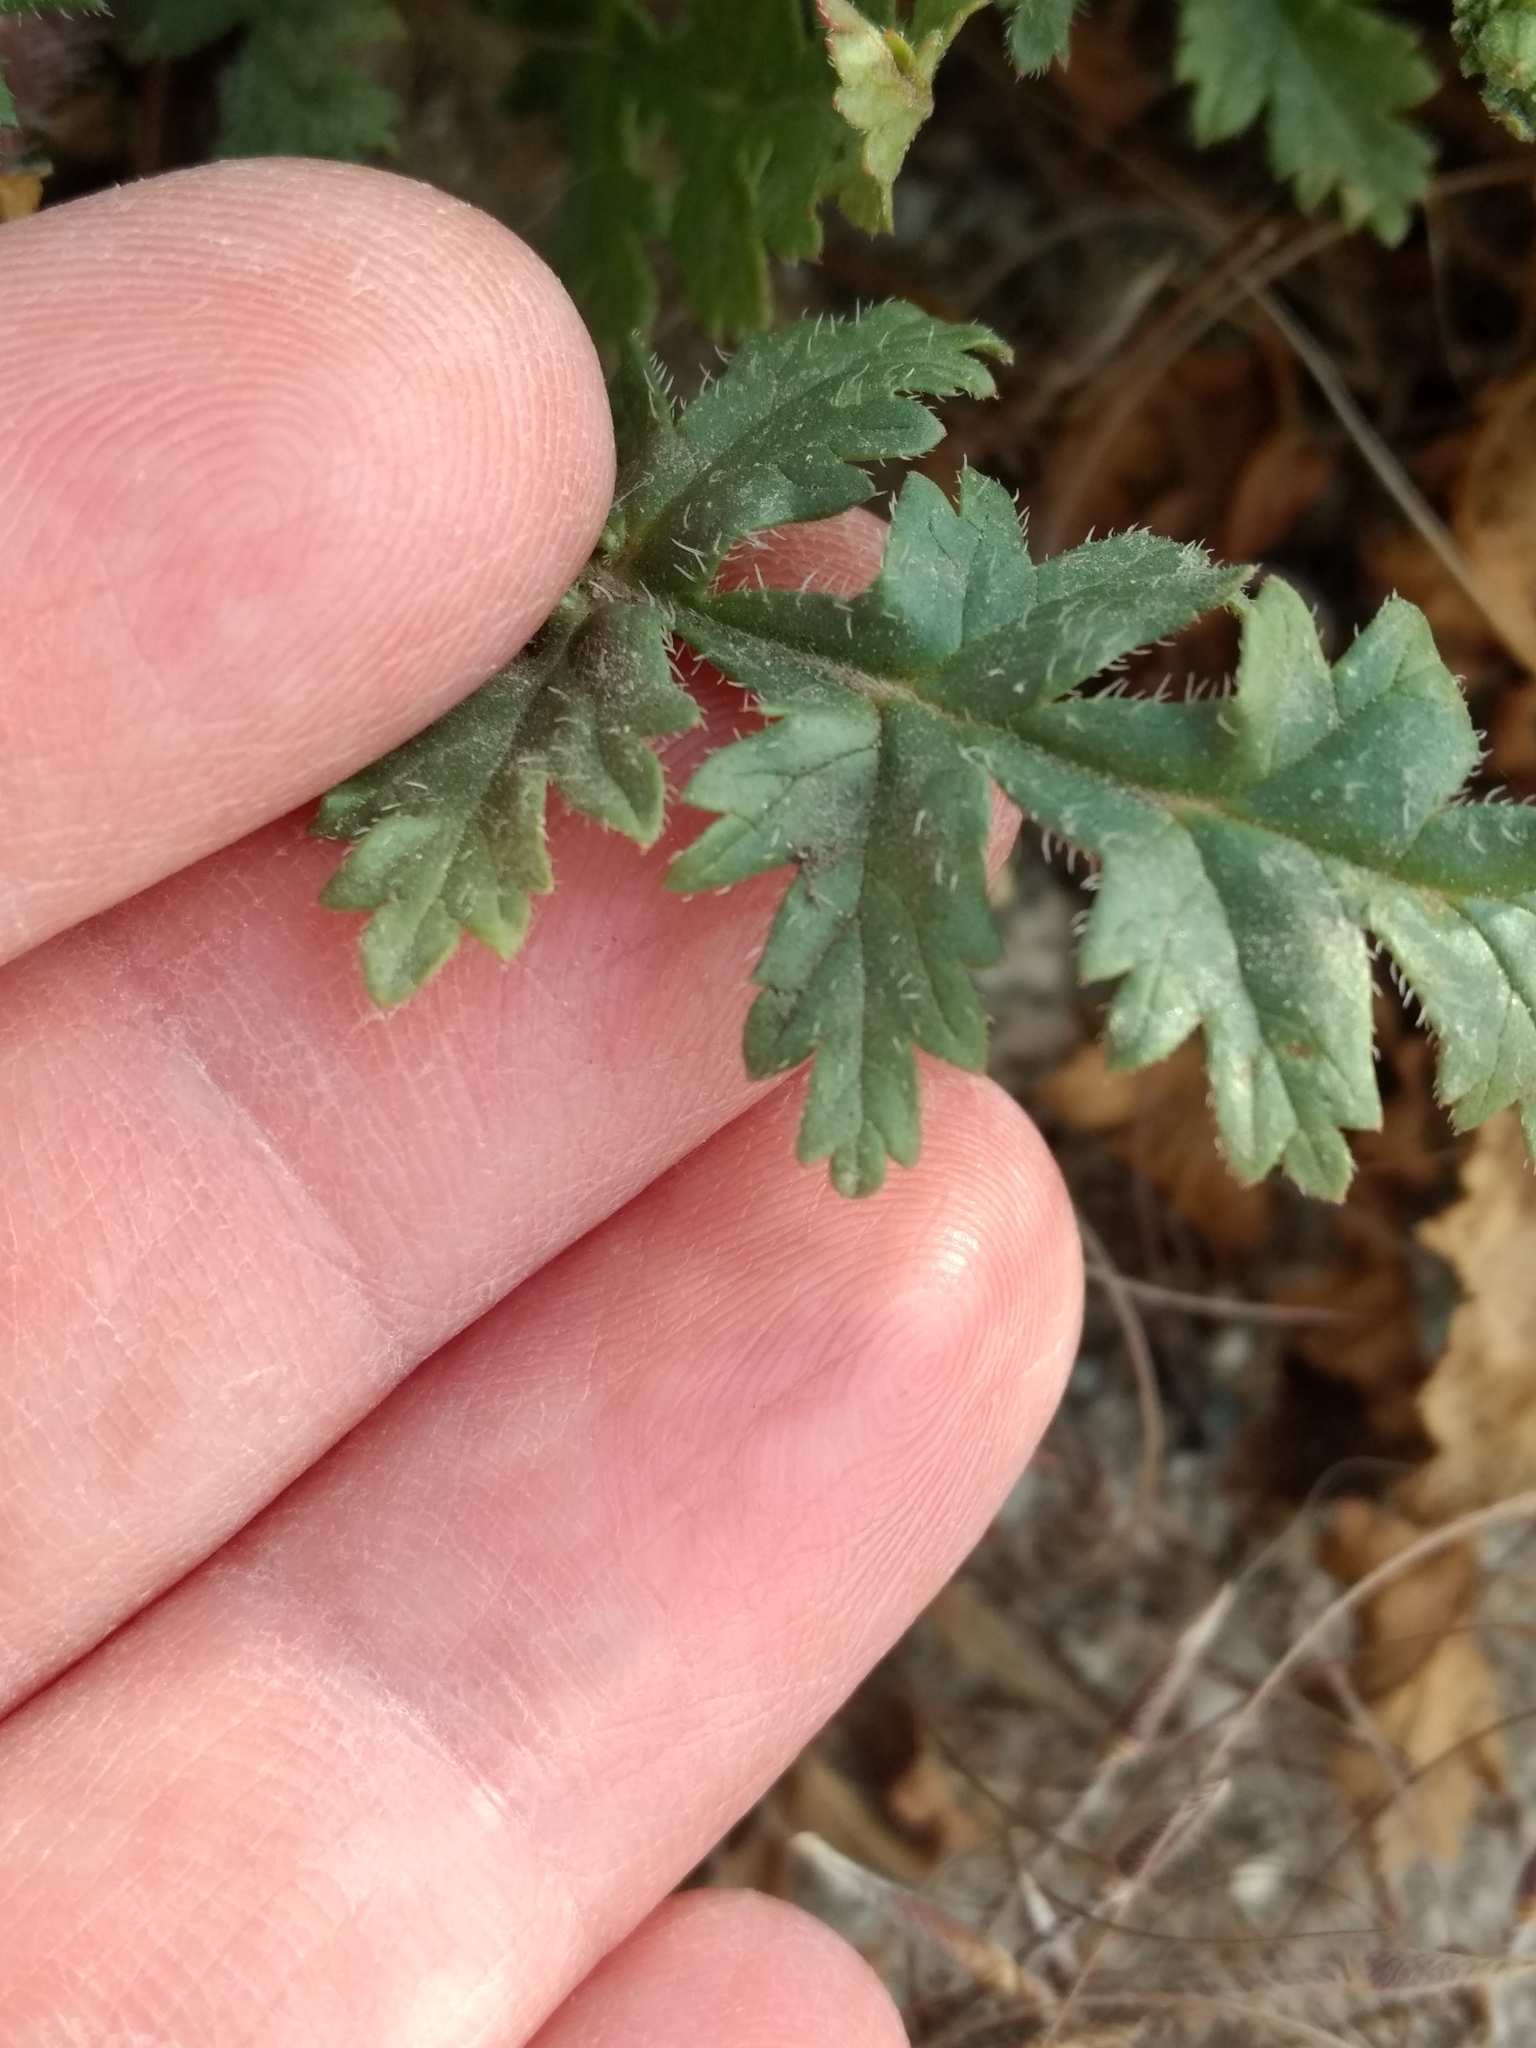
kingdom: Plantae
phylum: Tracheophyta
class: Magnoliopsida
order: Geraniales
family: Geraniaceae
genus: Erodium
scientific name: Erodium botrys
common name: Mediterranean stork's-bill
